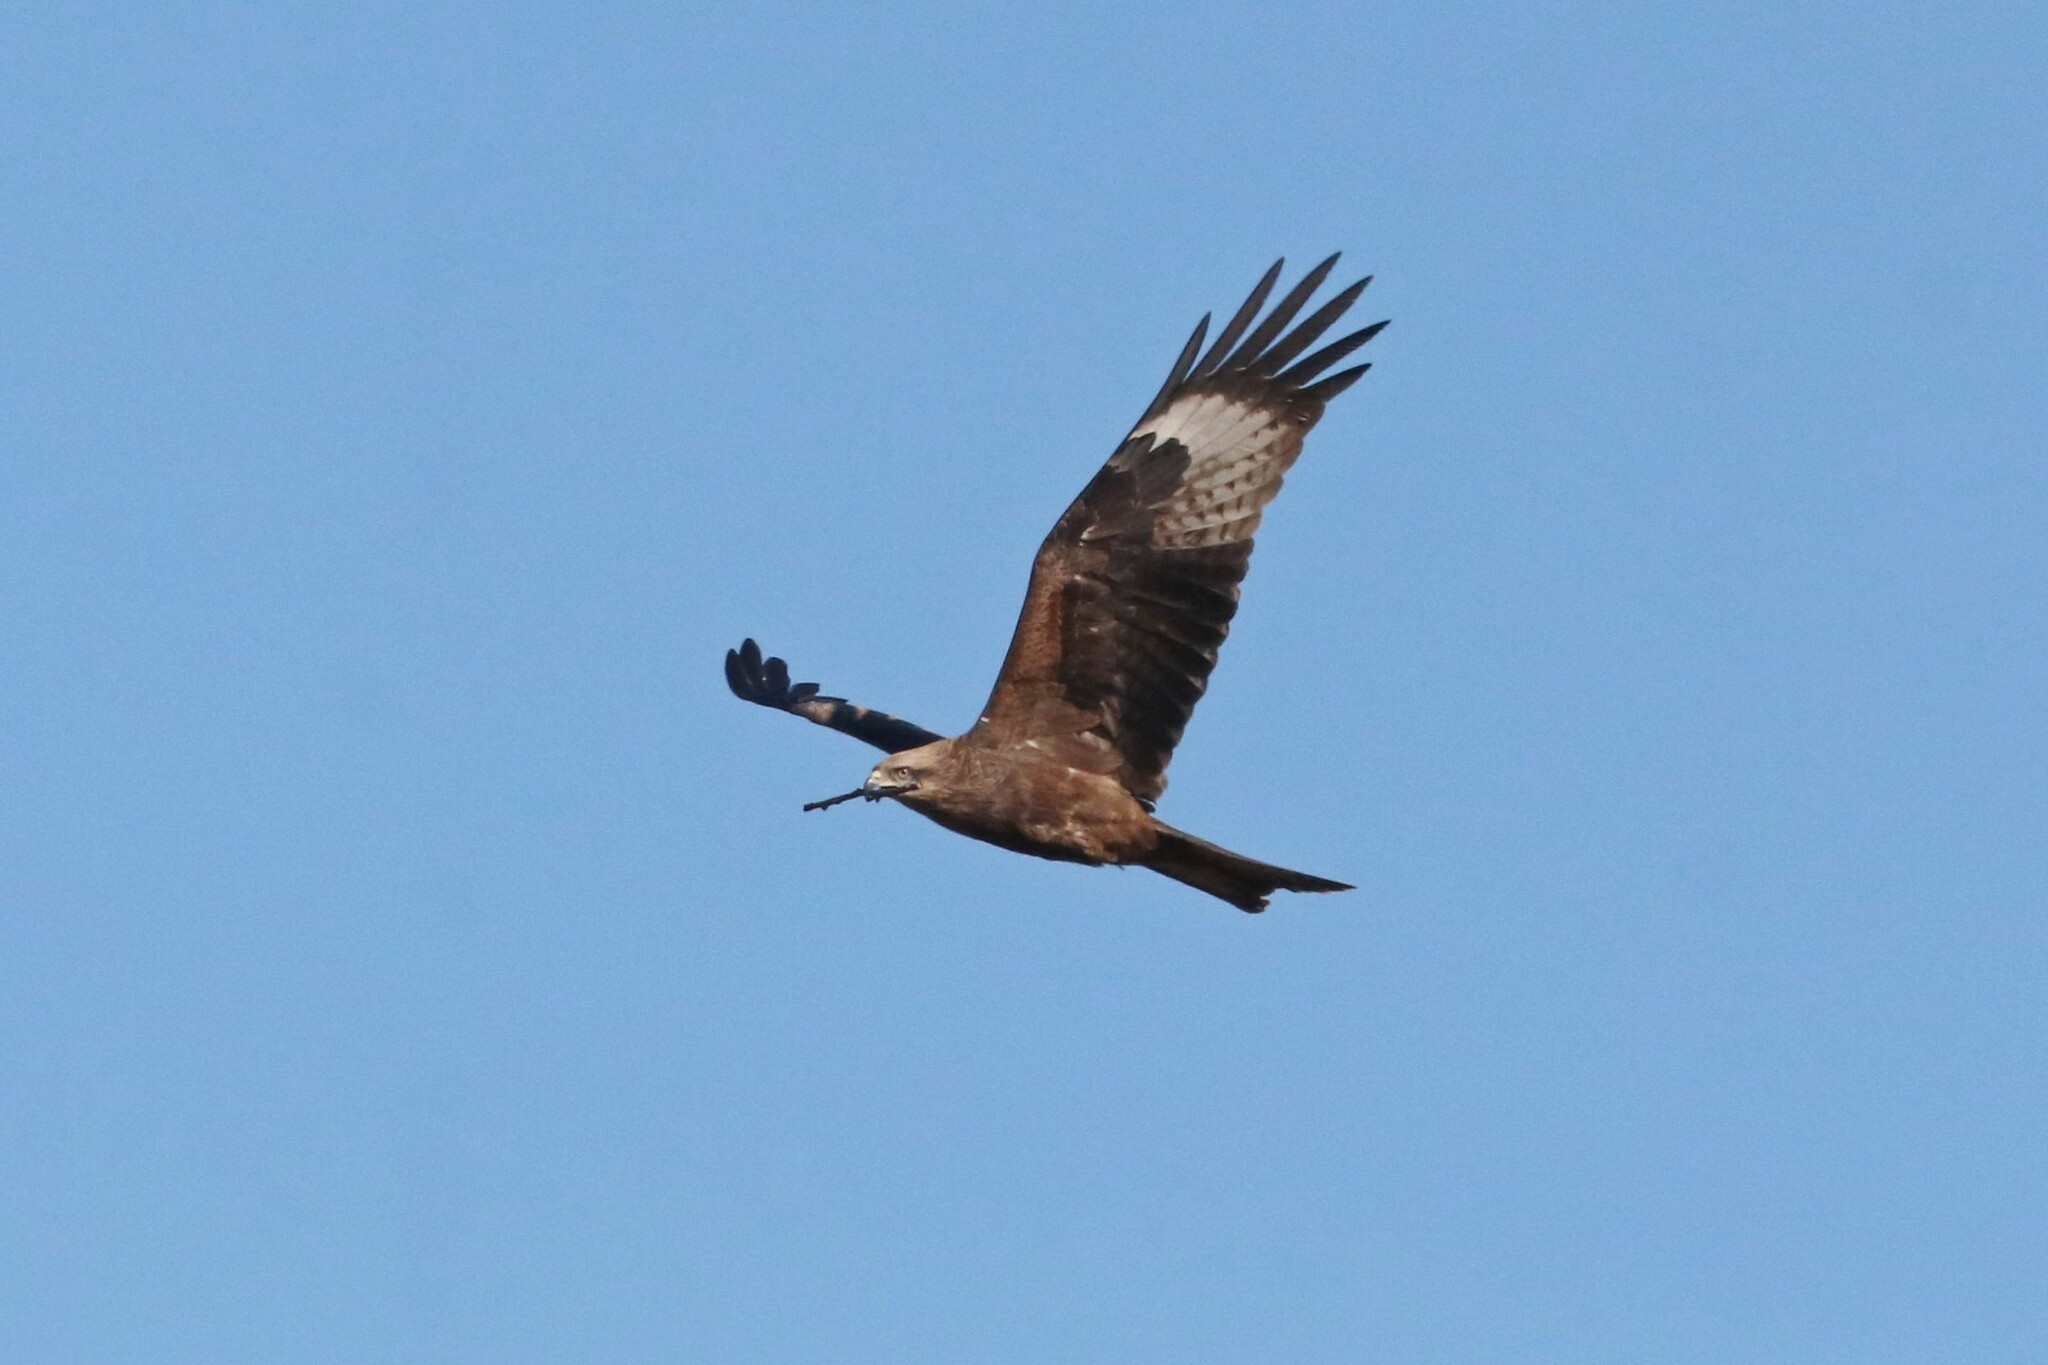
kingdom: Animalia
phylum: Chordata
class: Aves
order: Accipitriformes
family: Accipitridae
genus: Milvus
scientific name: Milvus migrans
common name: Black kite
